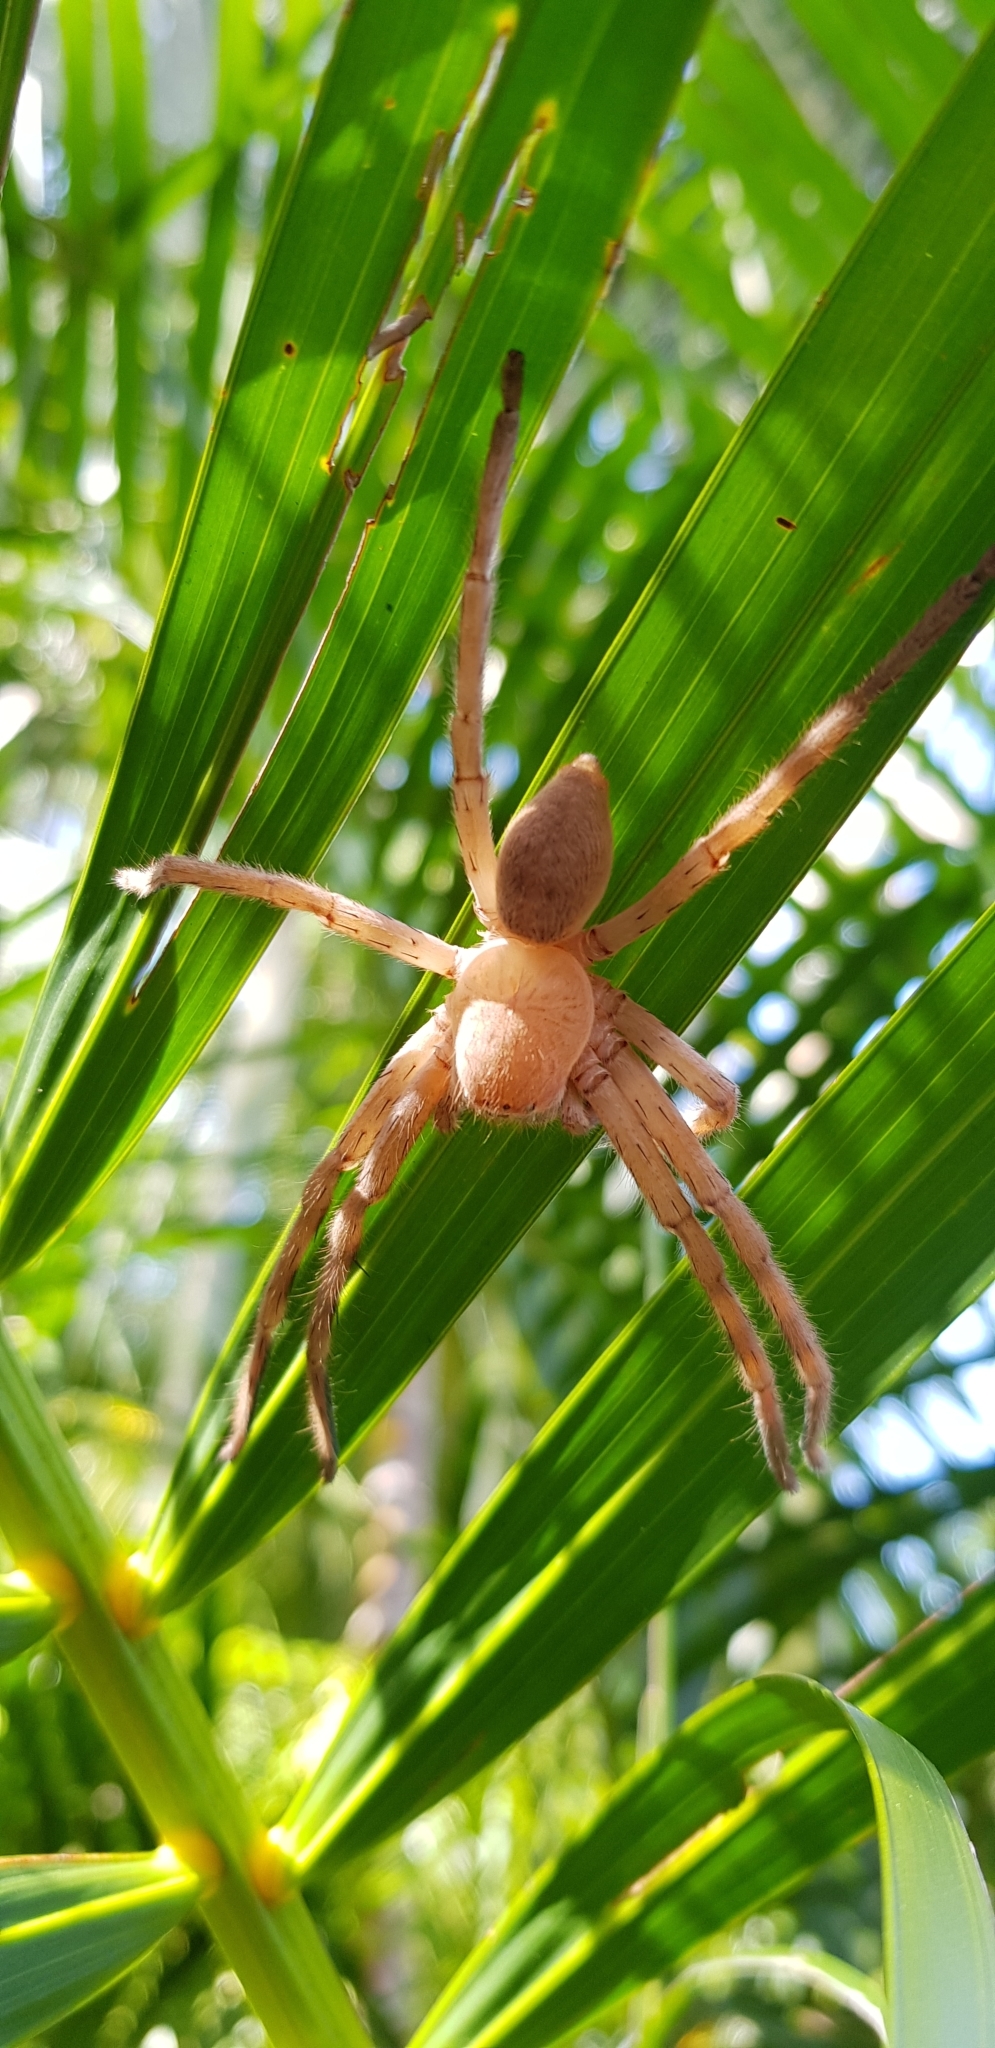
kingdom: Animalia
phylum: Arthropoda
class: Arachnida
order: Araneae
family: Sparassidae
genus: Neosparassus
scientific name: Neosparassus salacius
